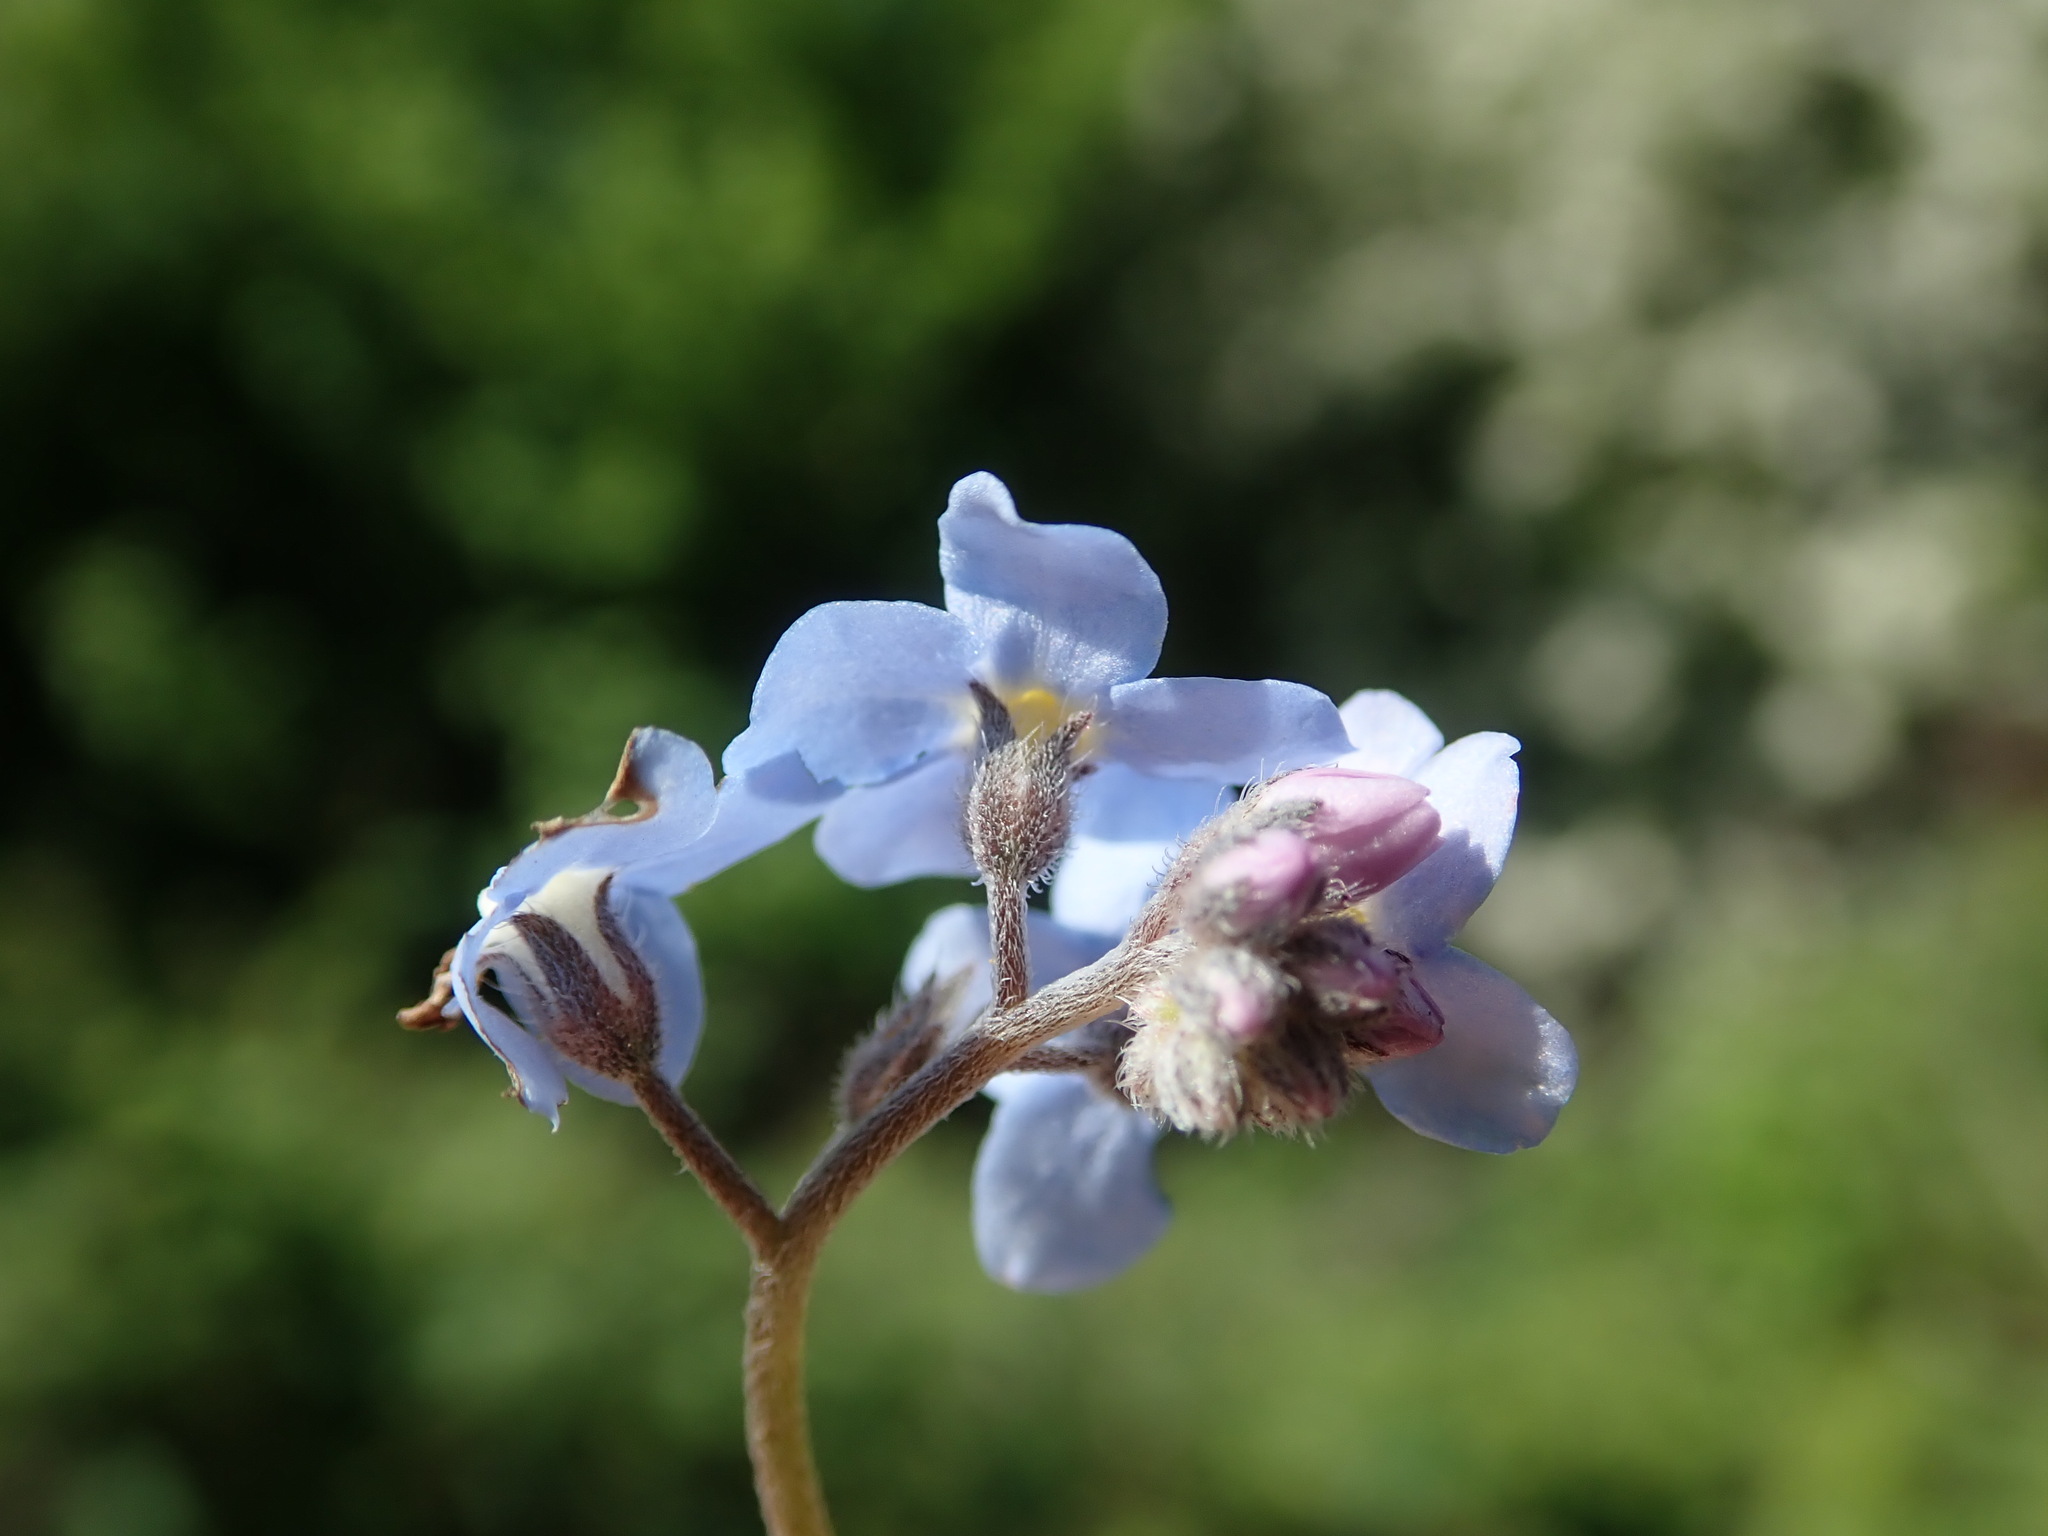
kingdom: Plantae
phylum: Tracheophyta
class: Magnoliopsida
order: Boraginales
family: Boraginaceae
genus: Myosotis
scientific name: Myosotis sylvatica
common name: Wood forget-me-not
